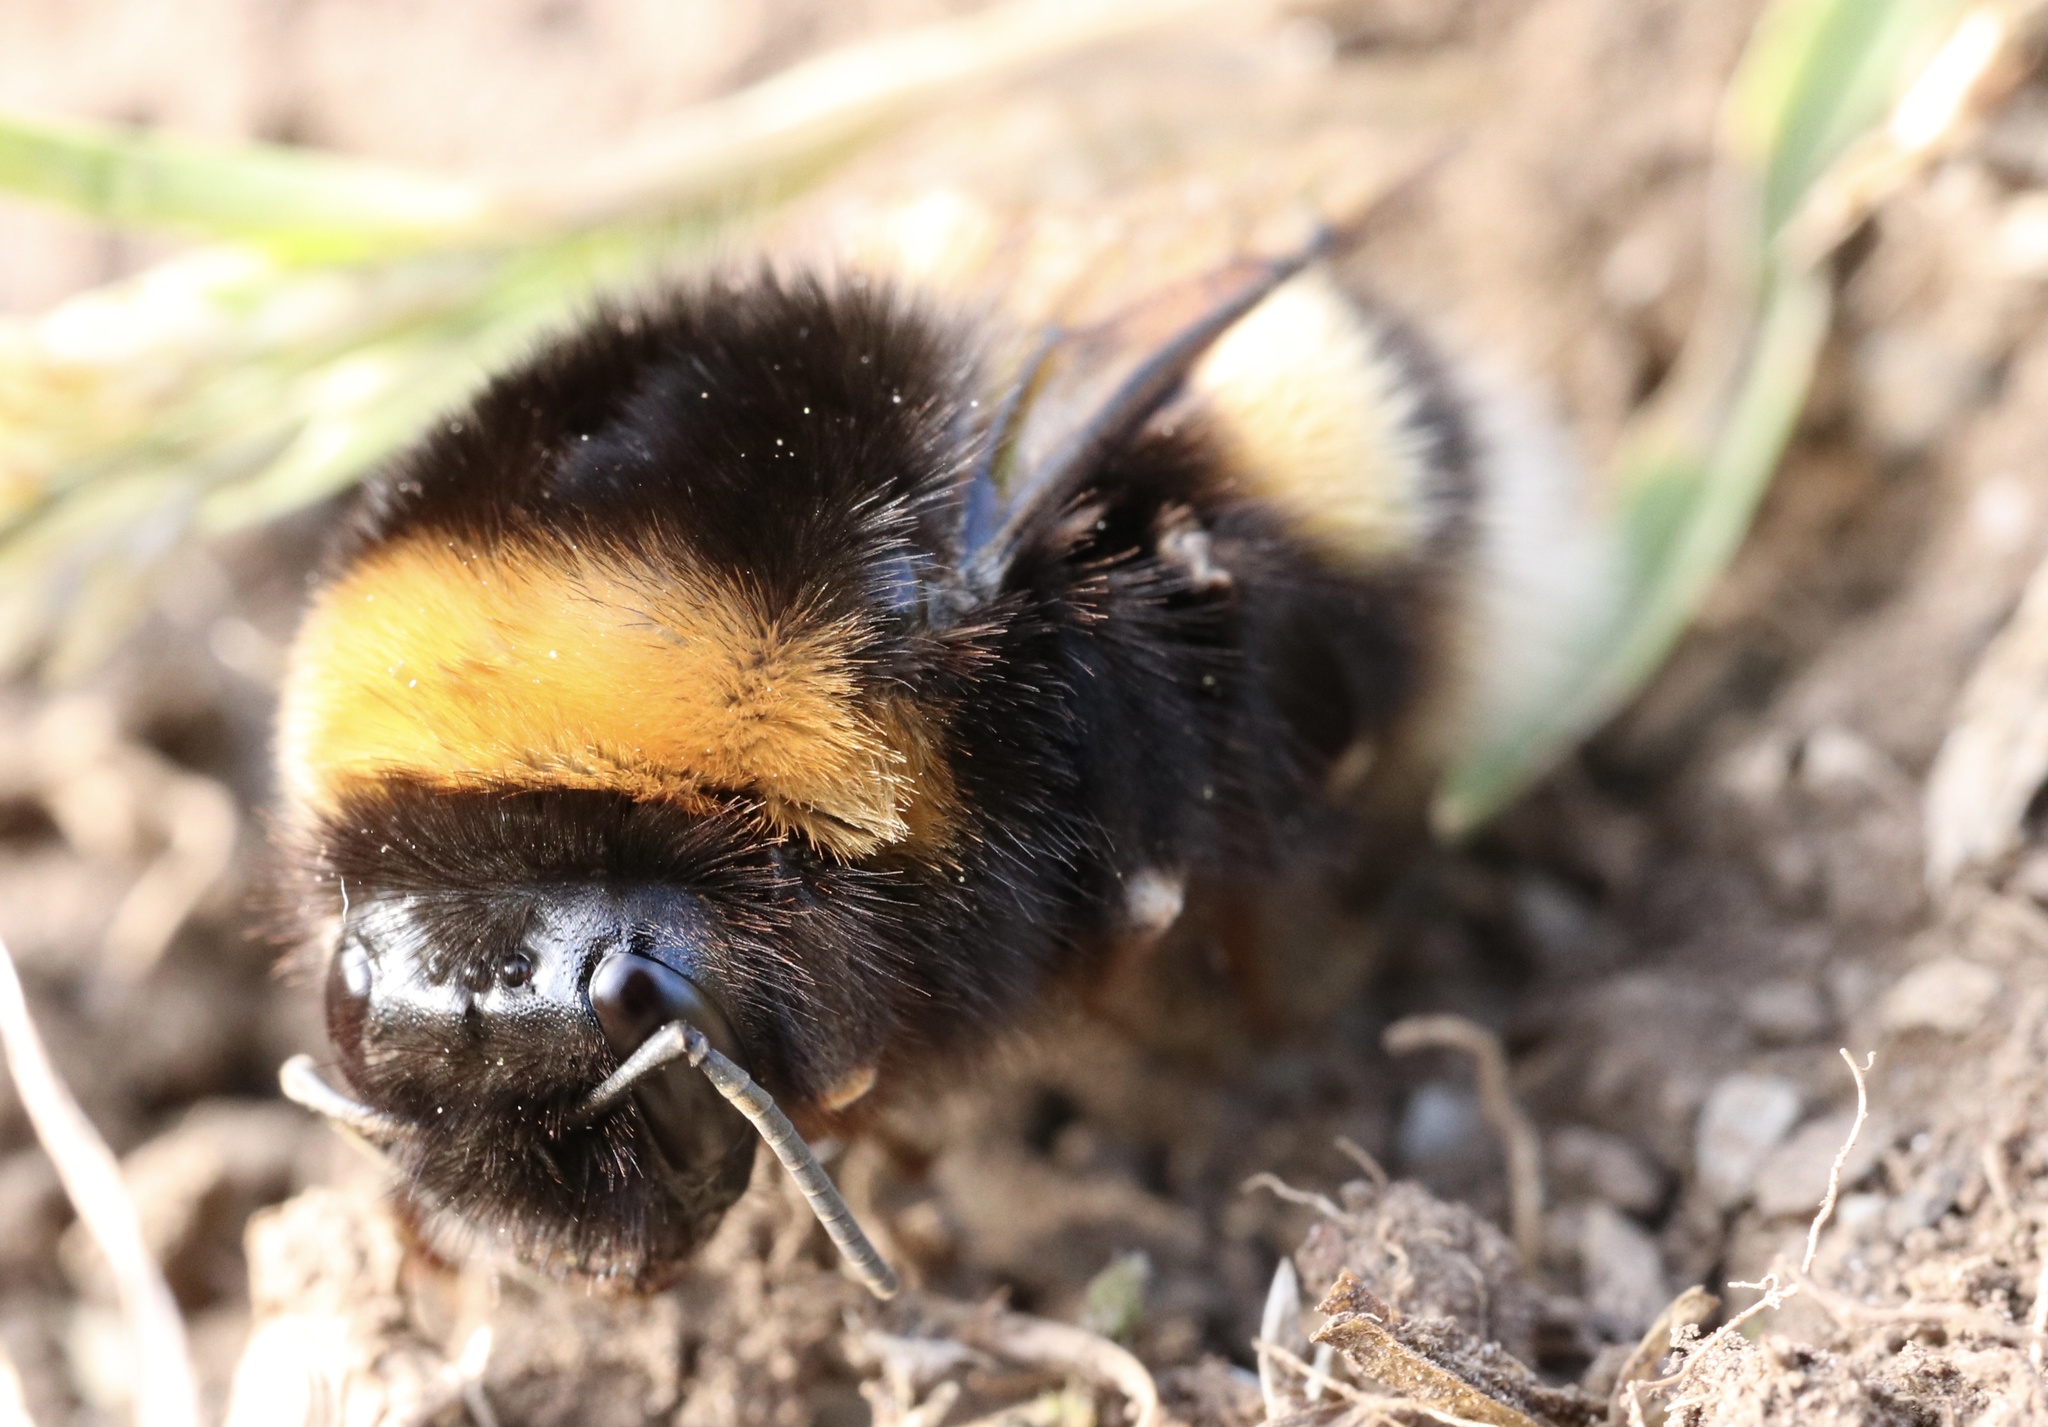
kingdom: Animalia
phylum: Arthropoda
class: Insecta
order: Hymenoptera
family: Apidae
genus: Bombus
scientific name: Bombus terrestris
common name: Buff-tailed bumblebee
